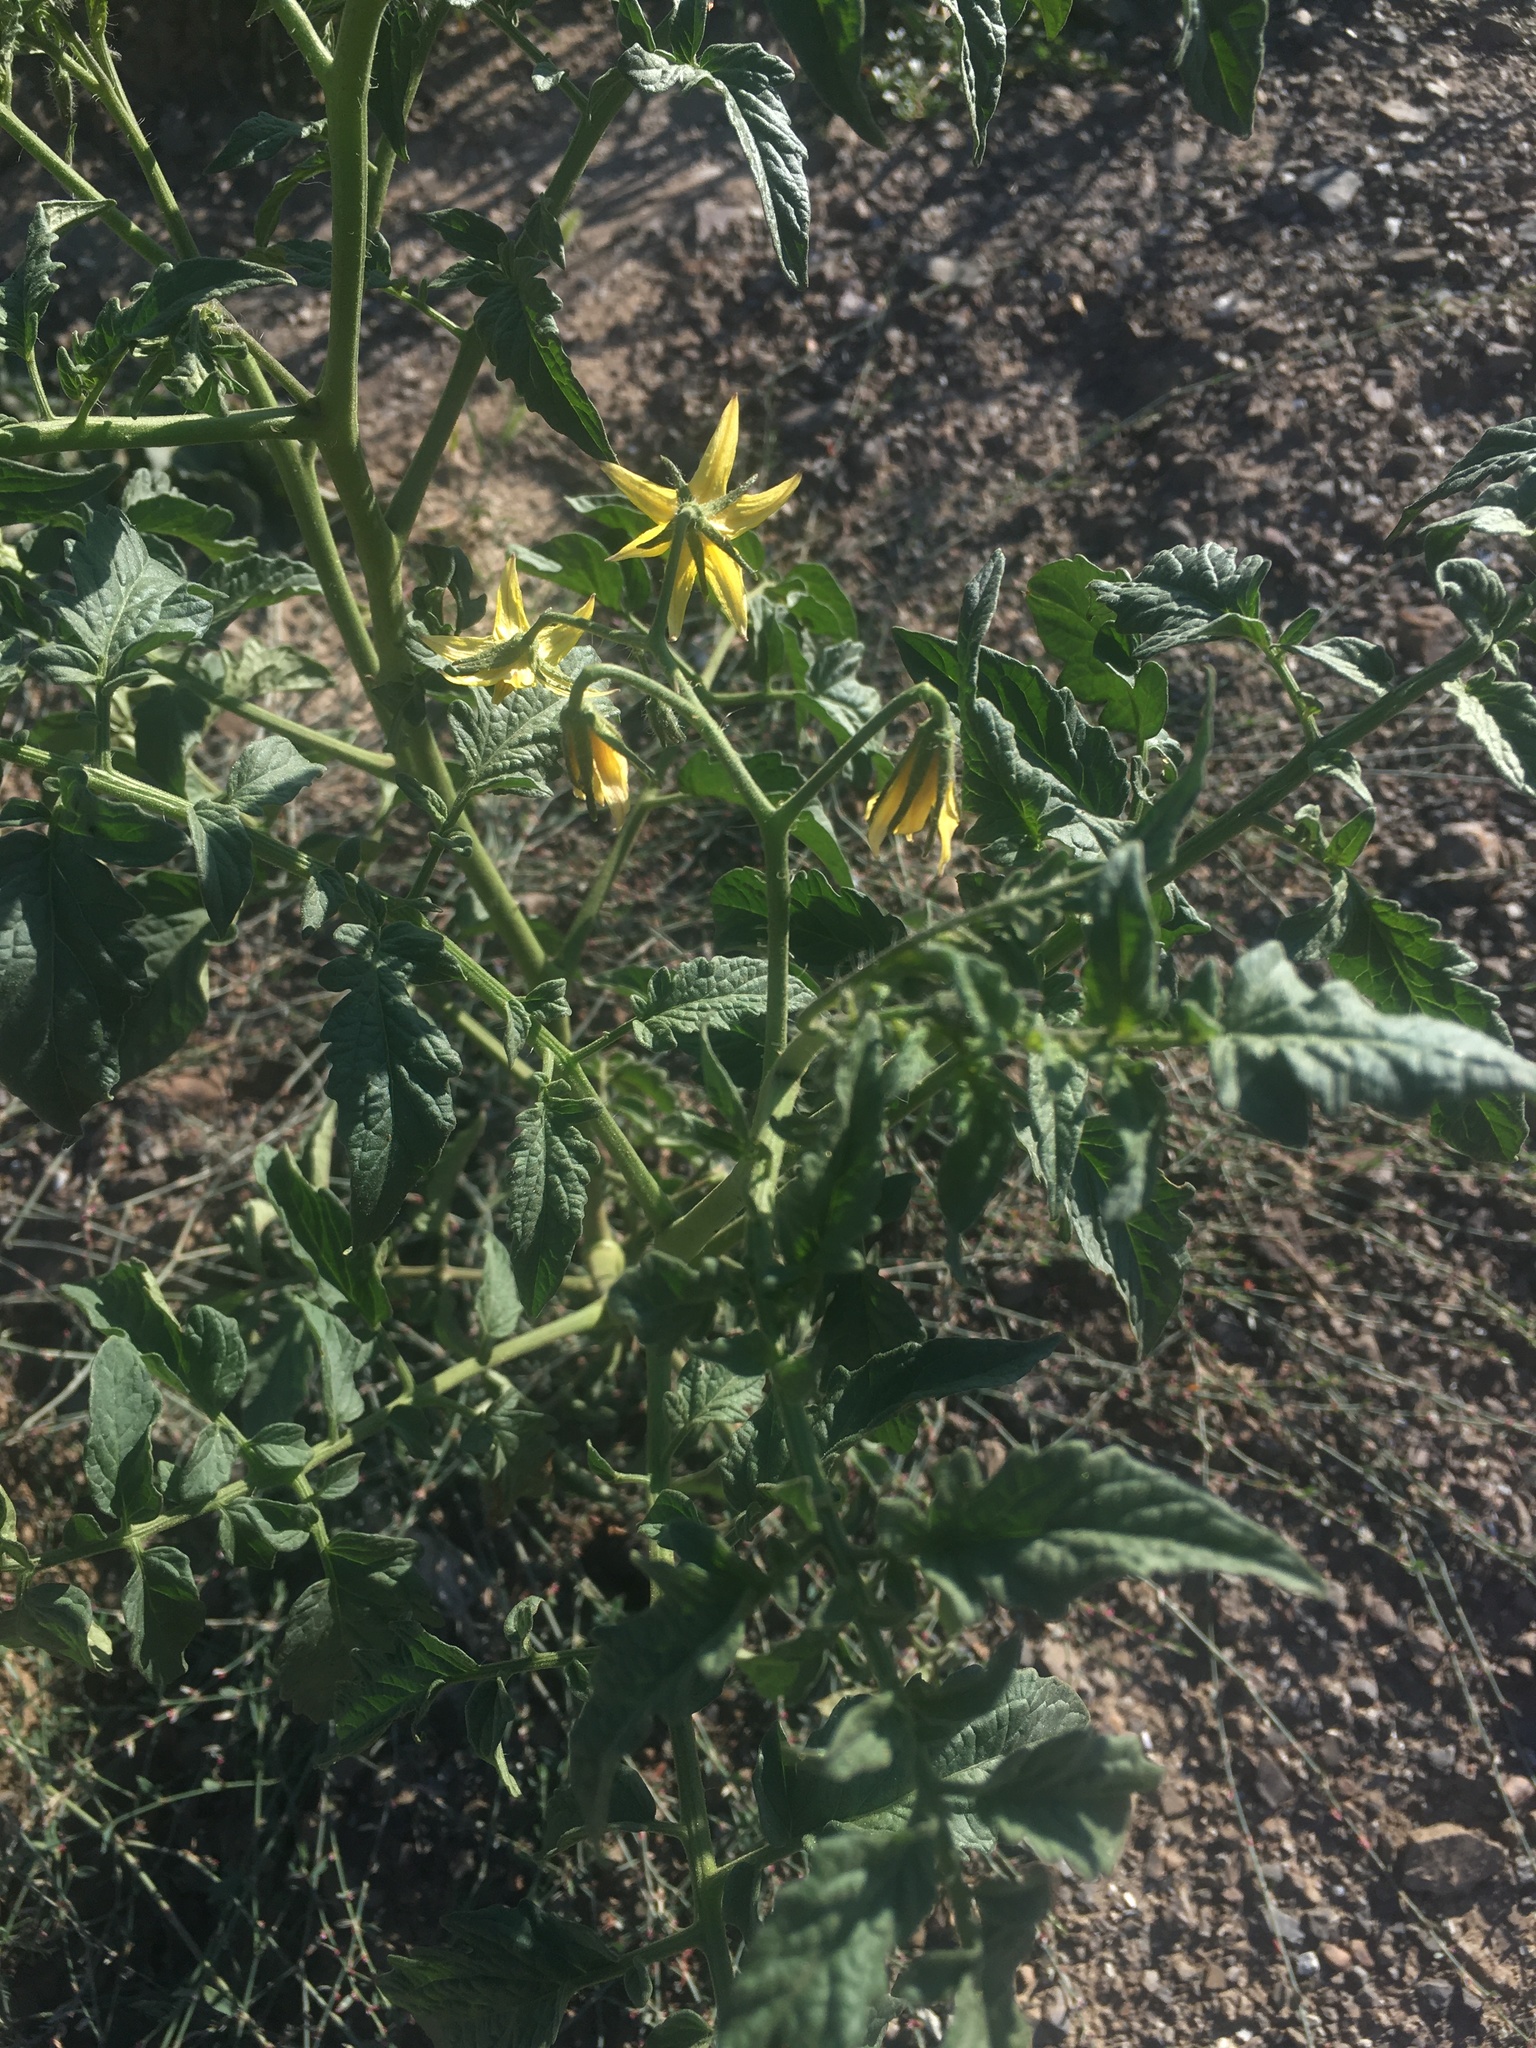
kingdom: Plantae
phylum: Tracheophyta
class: Magnoliopsida
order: Solanales
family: Solanaceae
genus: Solanum
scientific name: Solanum lycopersicum
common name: Garden tomato
